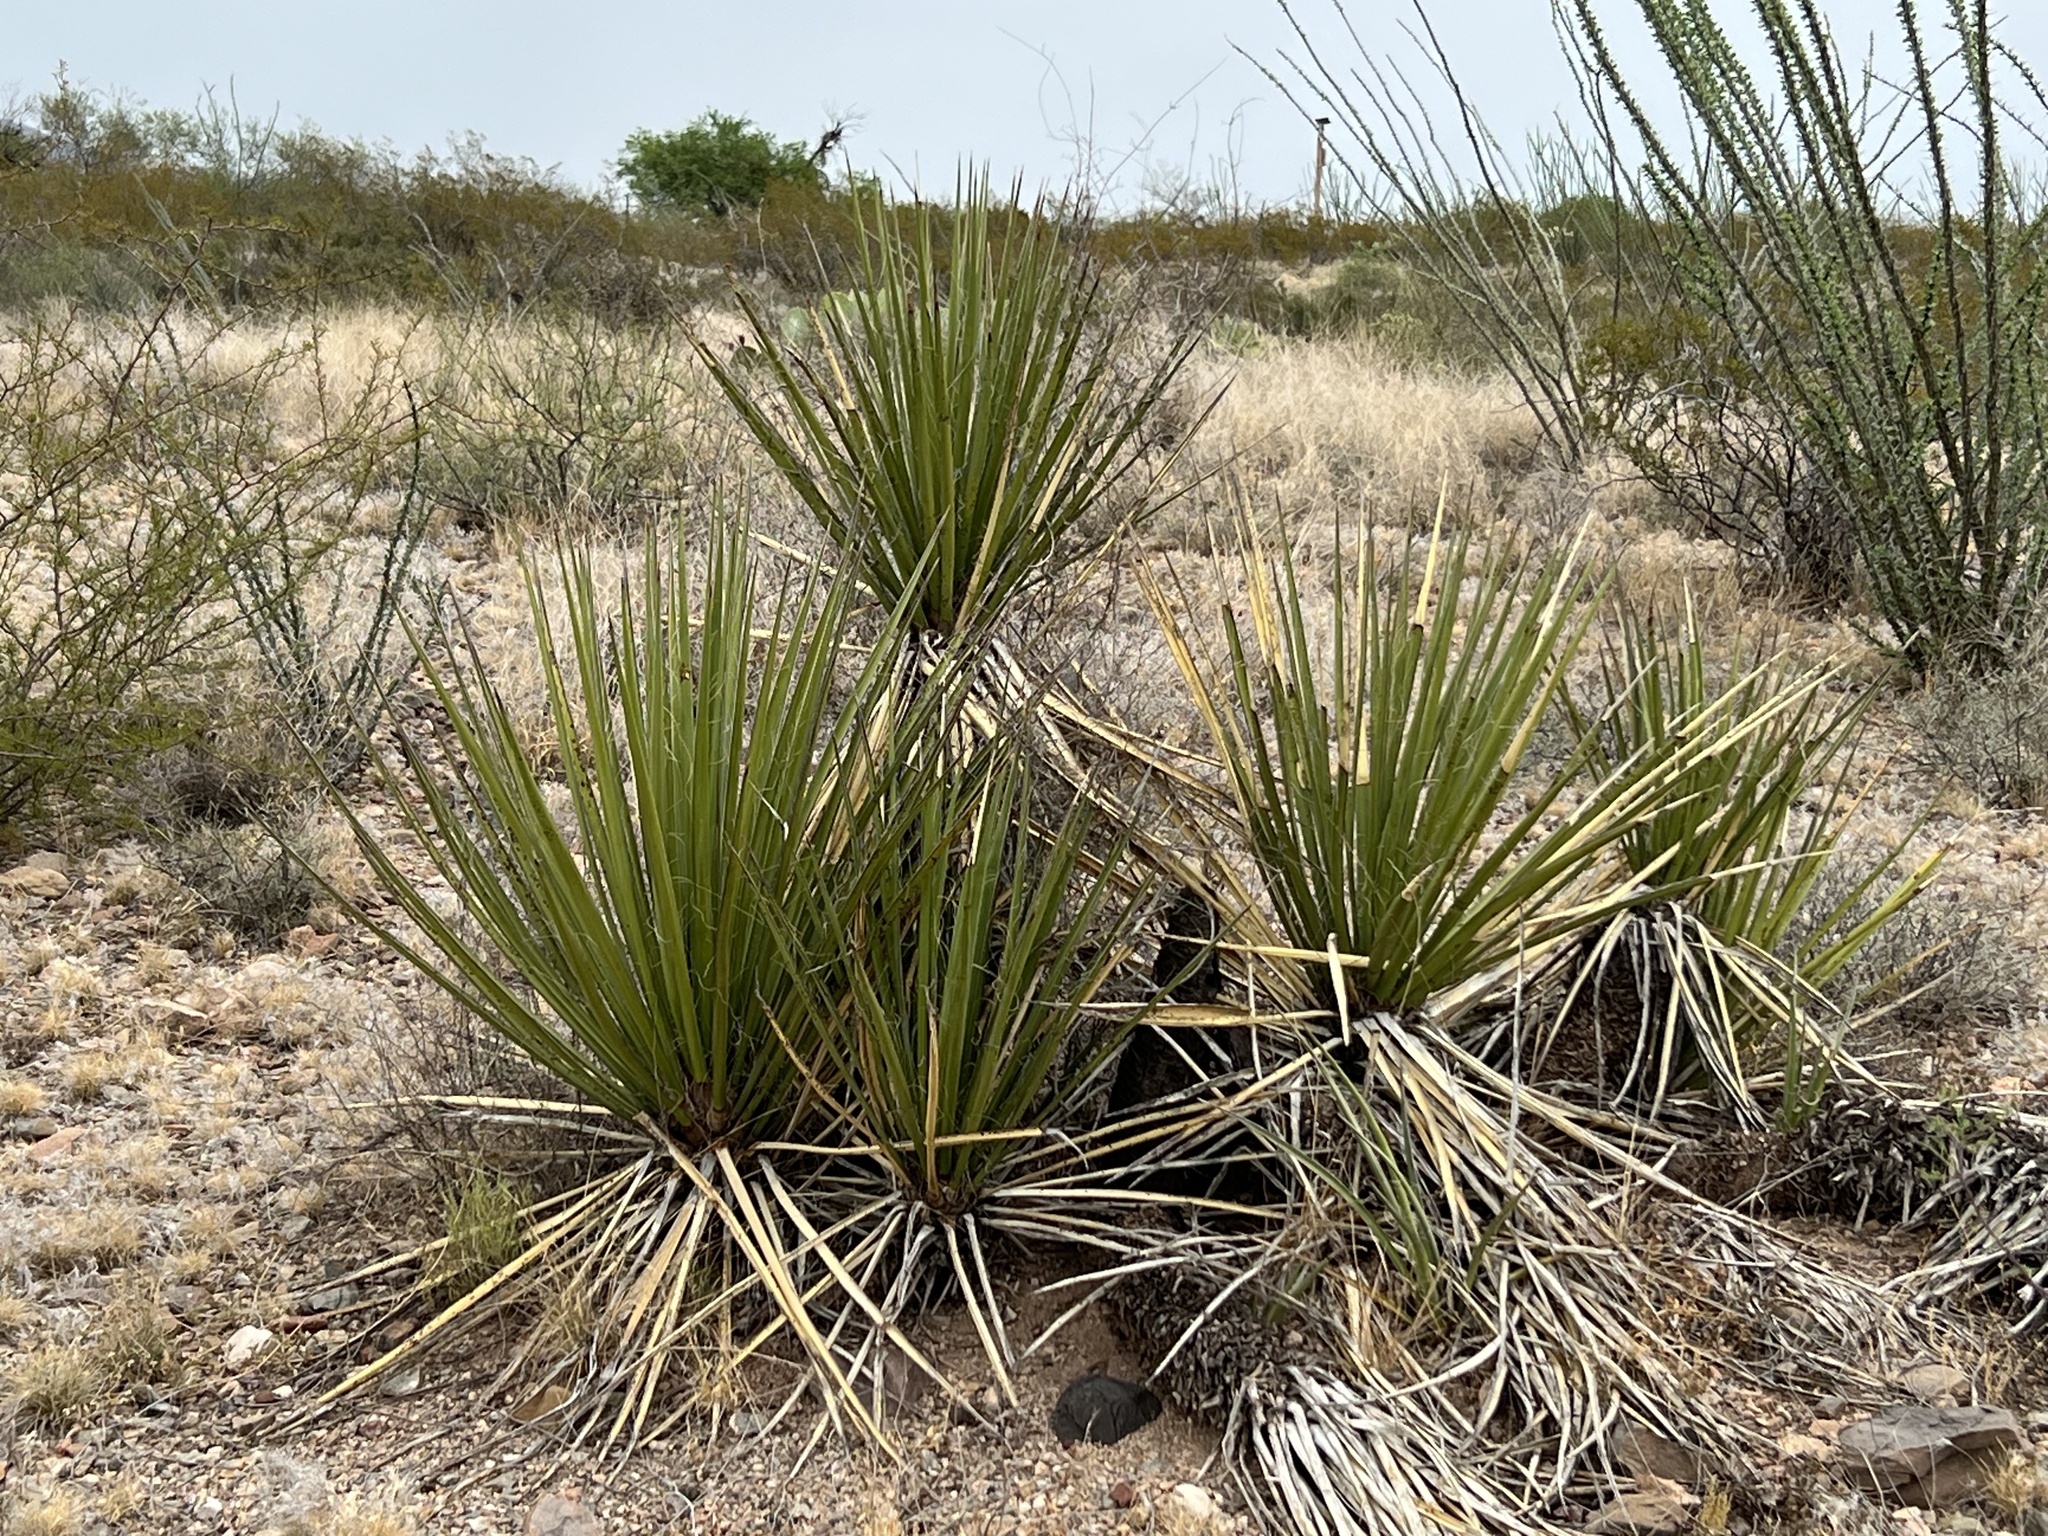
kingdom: Plantae
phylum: Tracheophyta
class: Liliopsida
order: Asparagales
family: Asparagaceae
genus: Yucca
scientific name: Yucca baccata
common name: Banana yucca
